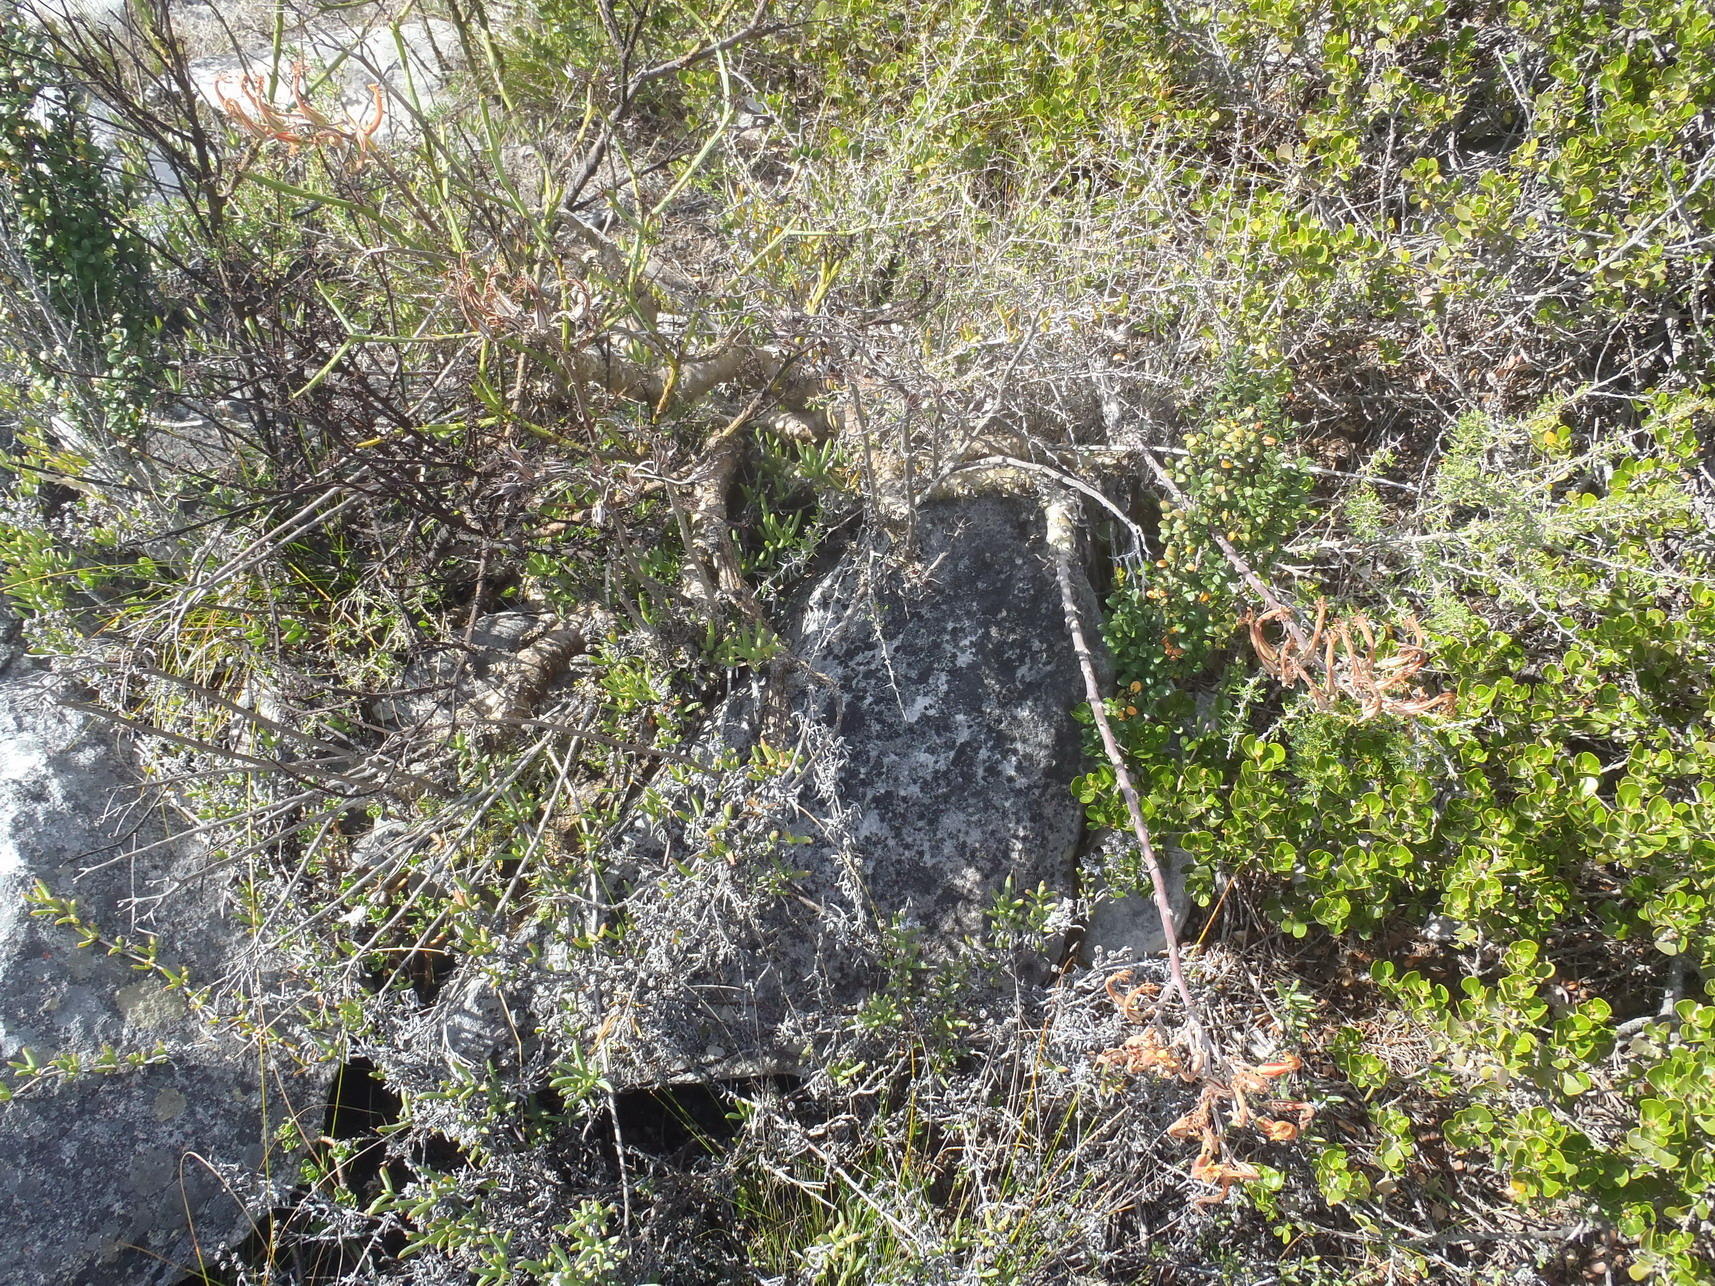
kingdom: Plantae
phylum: Tracheophyta
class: Magnoliopsida
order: Saxifragales
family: Crassulaceae
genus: Tylecodon
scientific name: Tylecodon grandiflorus
